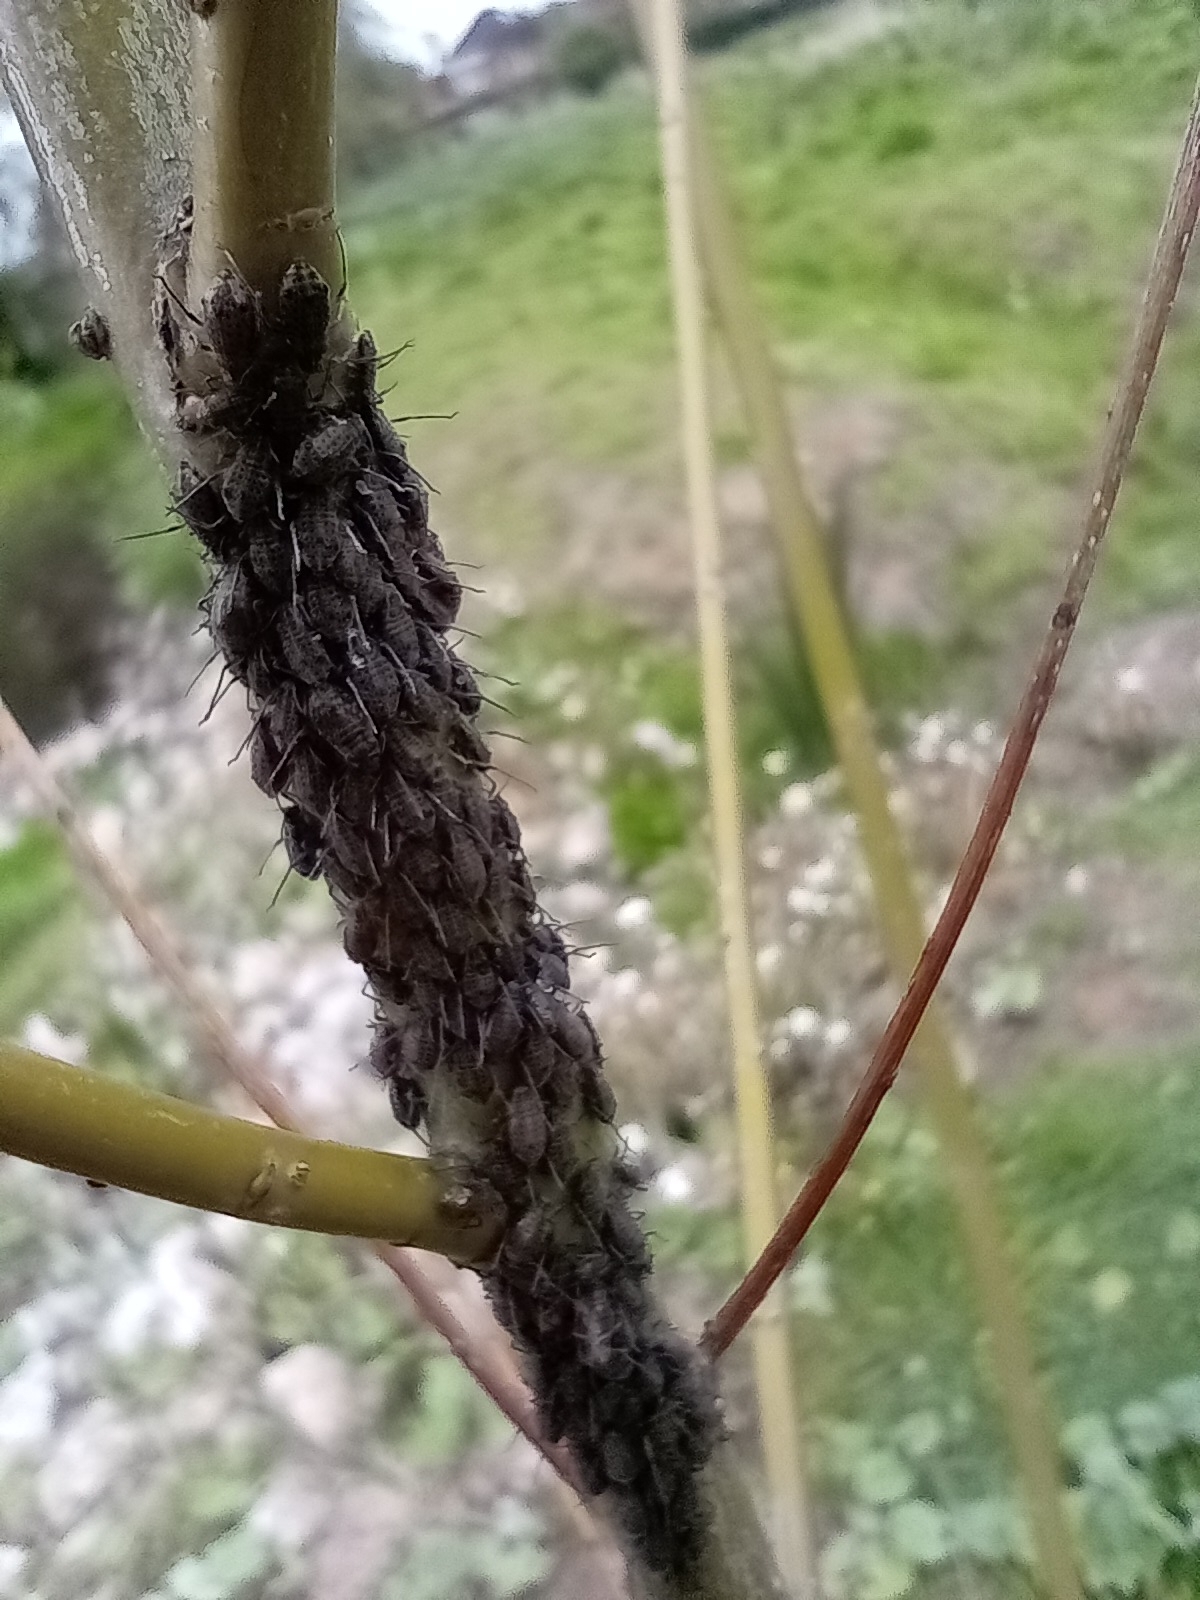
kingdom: Animalia
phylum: Arthropoda
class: Insecta
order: Hemiptera
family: Aphididae
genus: Tuberolachnus
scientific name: Tuberolachnus salignus
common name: Giant willow aphid
